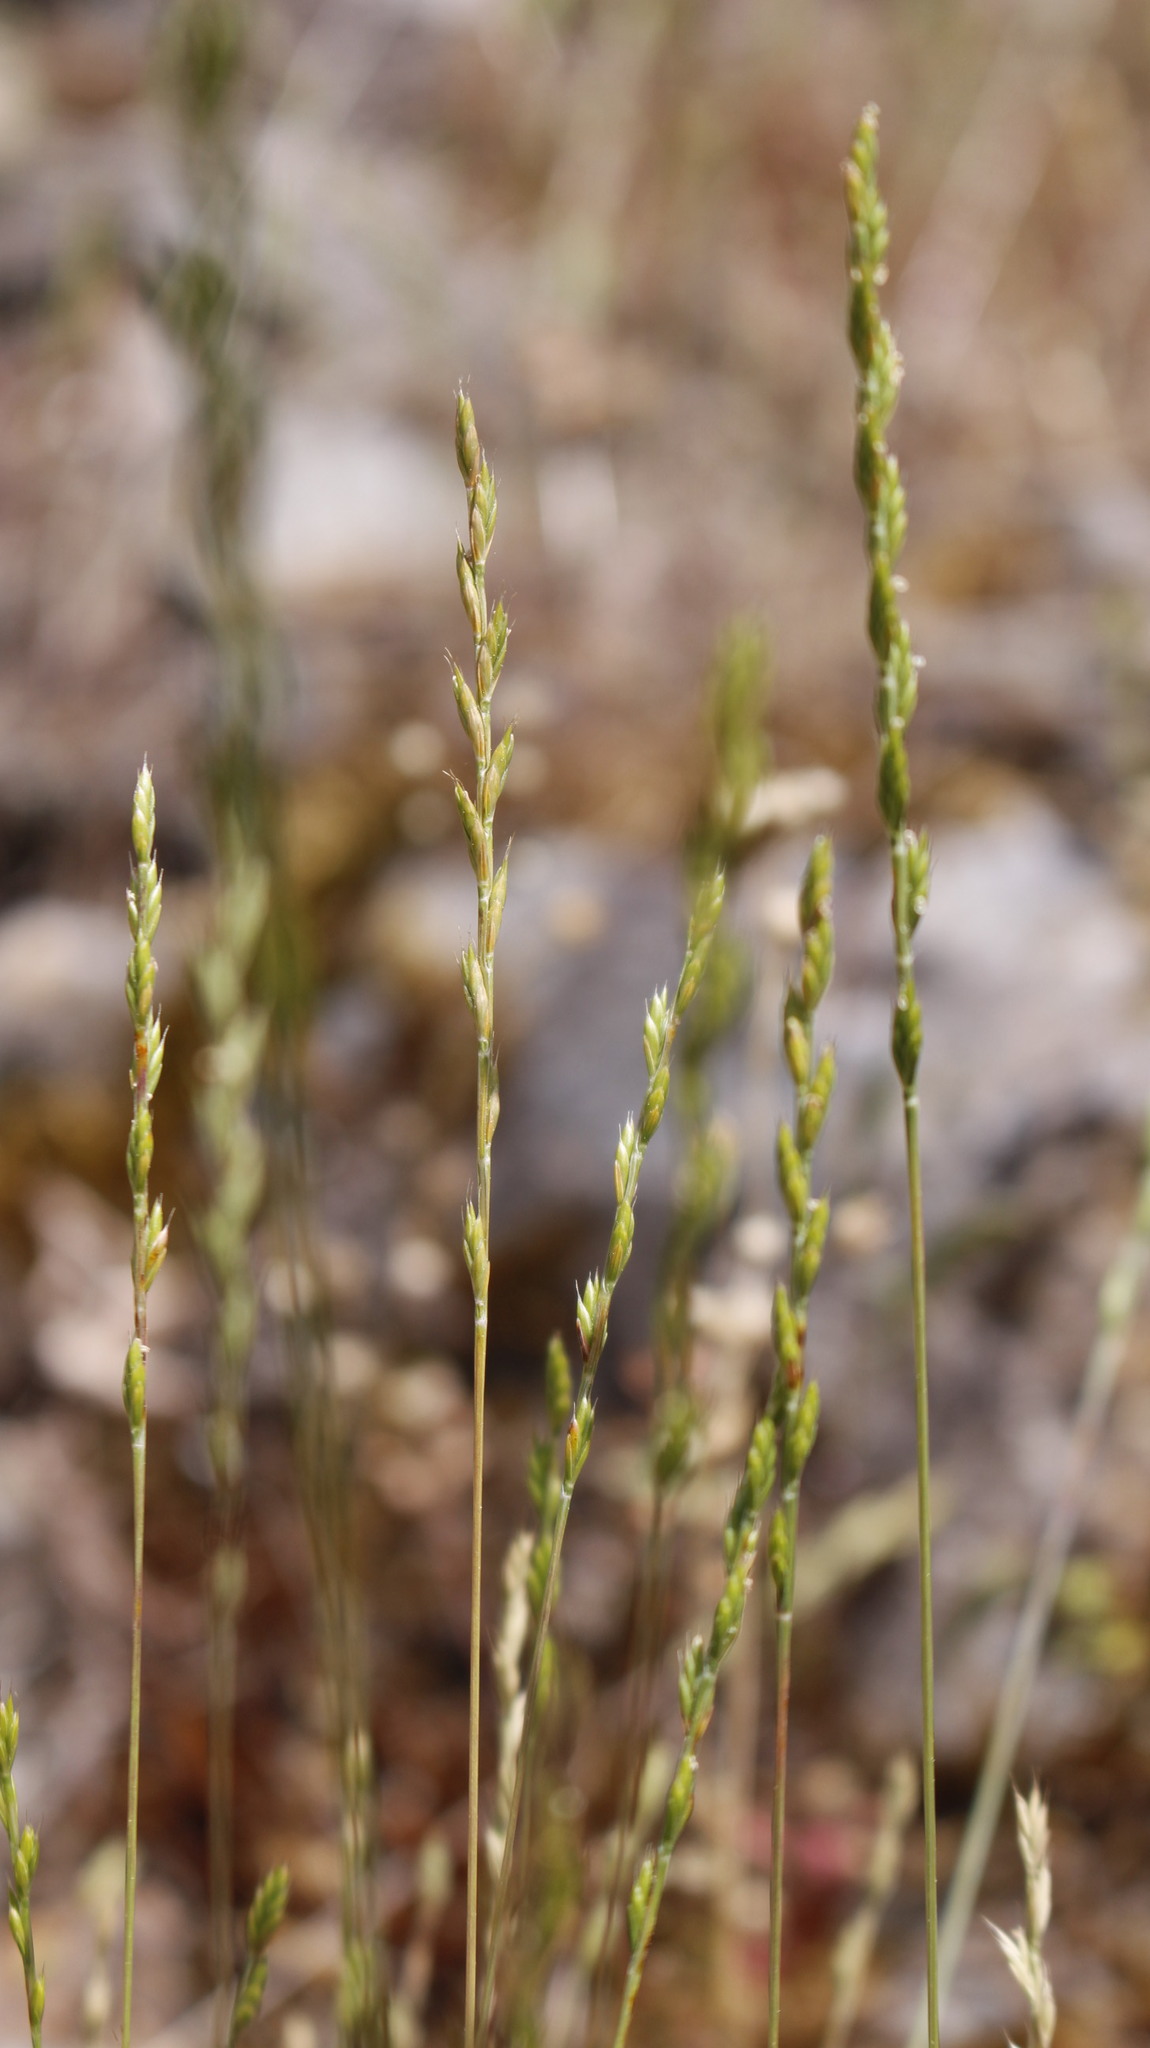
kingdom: Plantae
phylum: Tracheophyta
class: Liliopsida
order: Poales
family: Poaceae
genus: Festuca
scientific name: Festuca lachenalii
